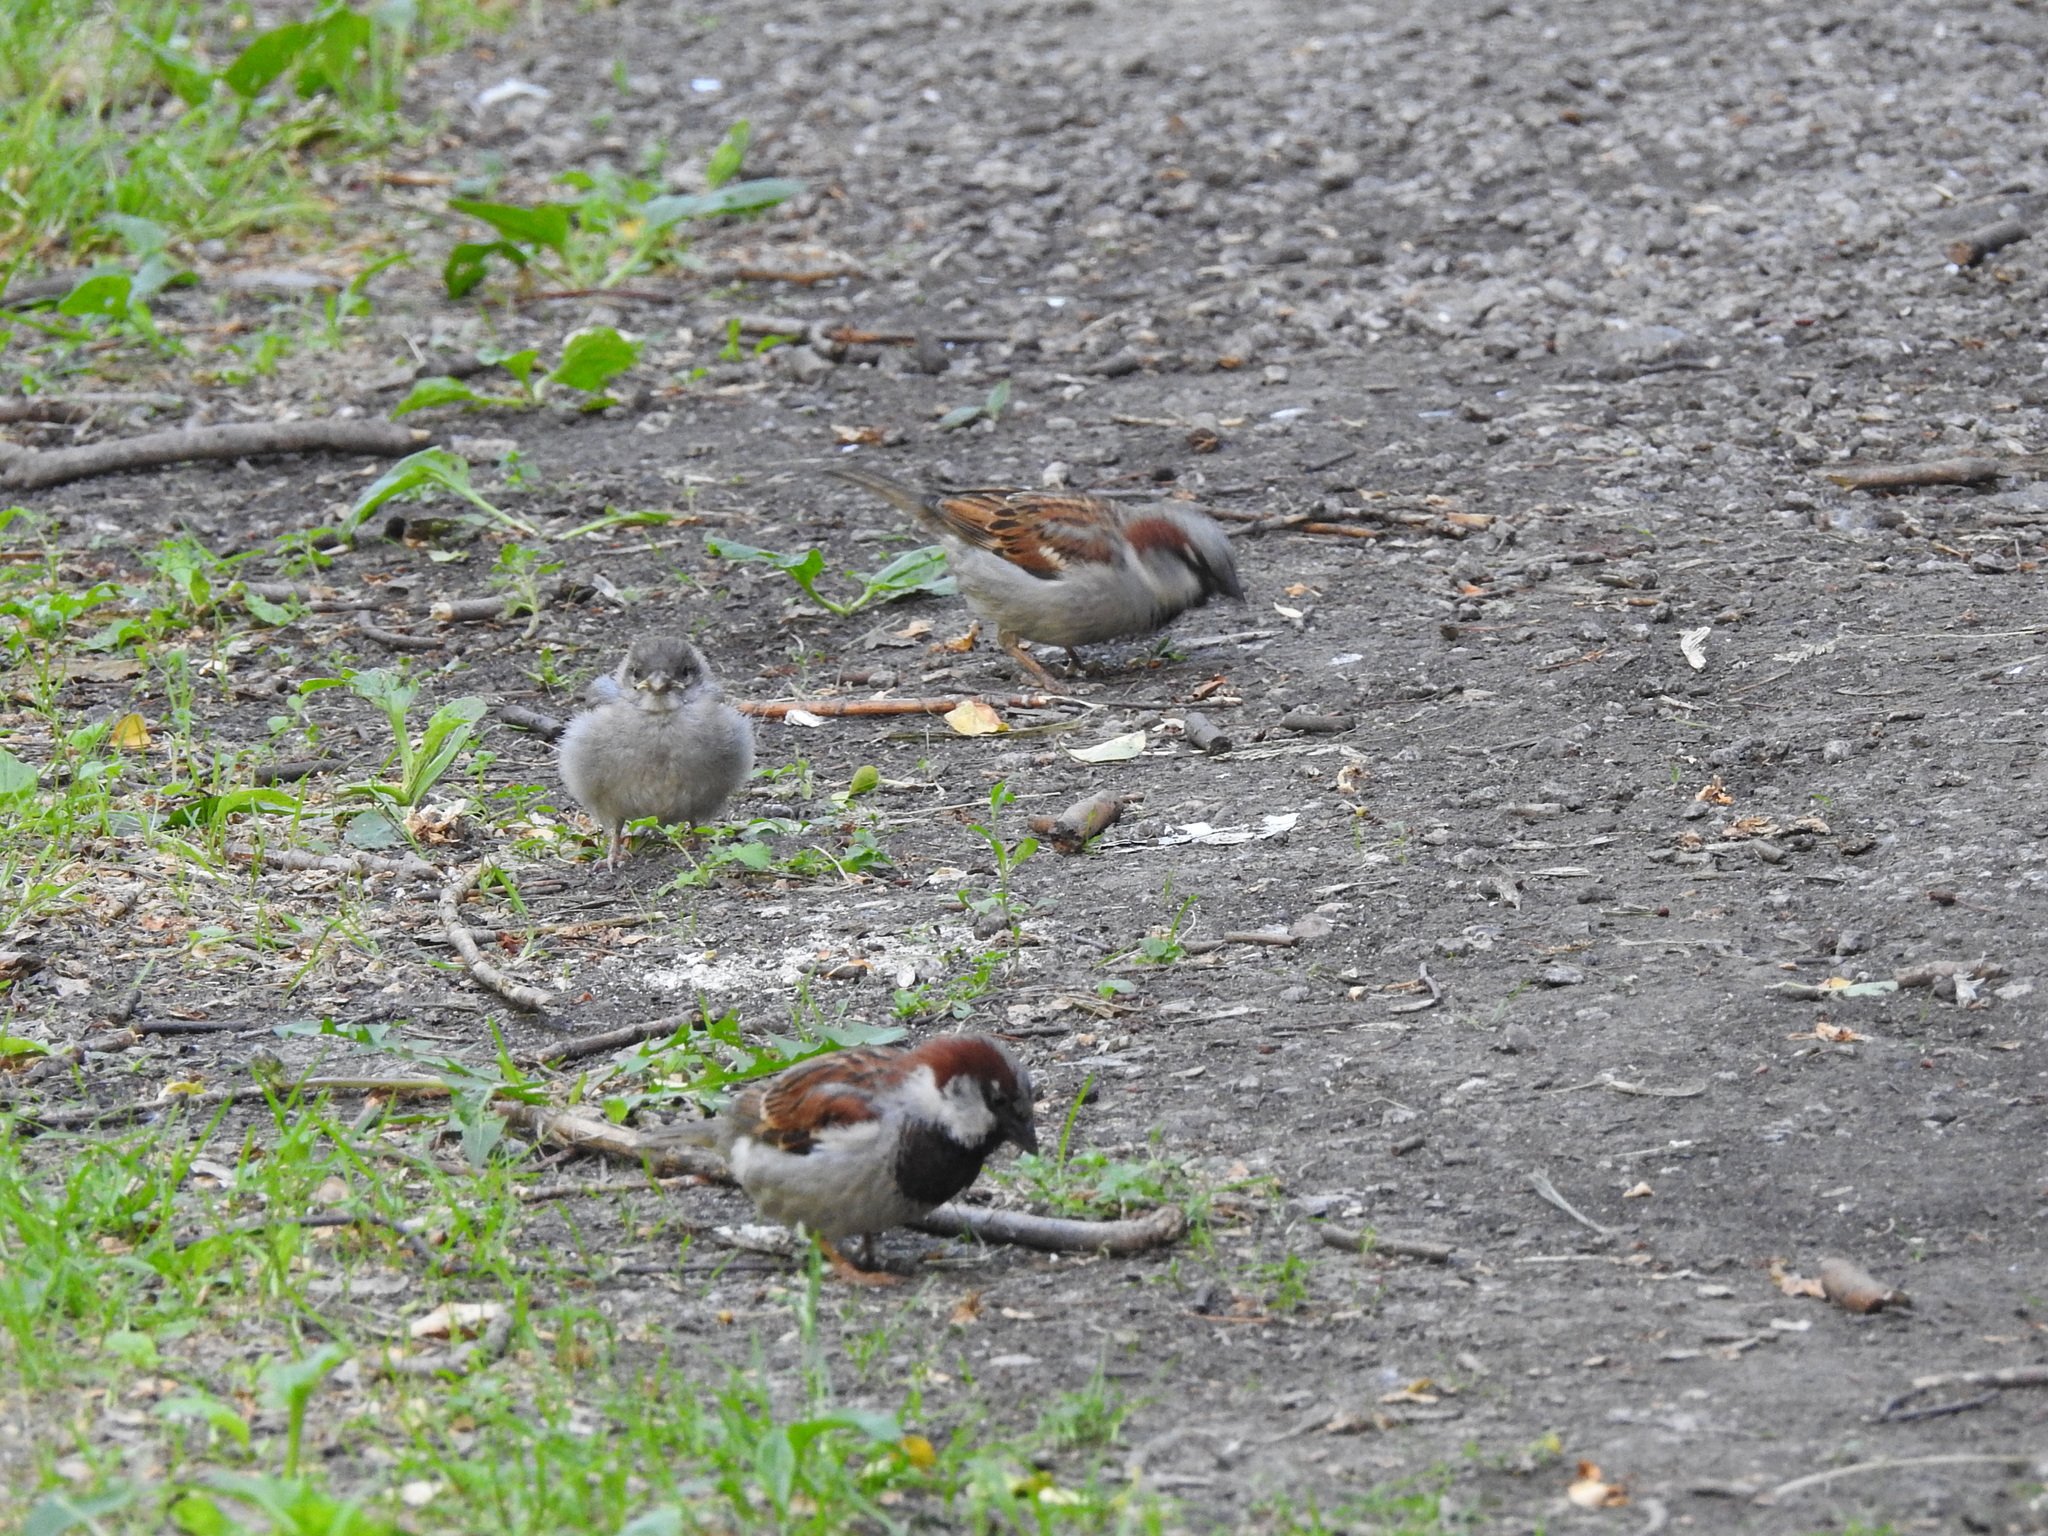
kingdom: Animalia
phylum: Chordata
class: Aves
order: Passeriformes
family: Passeridae
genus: Passer
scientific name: Passer domesticus
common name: House sparrow
